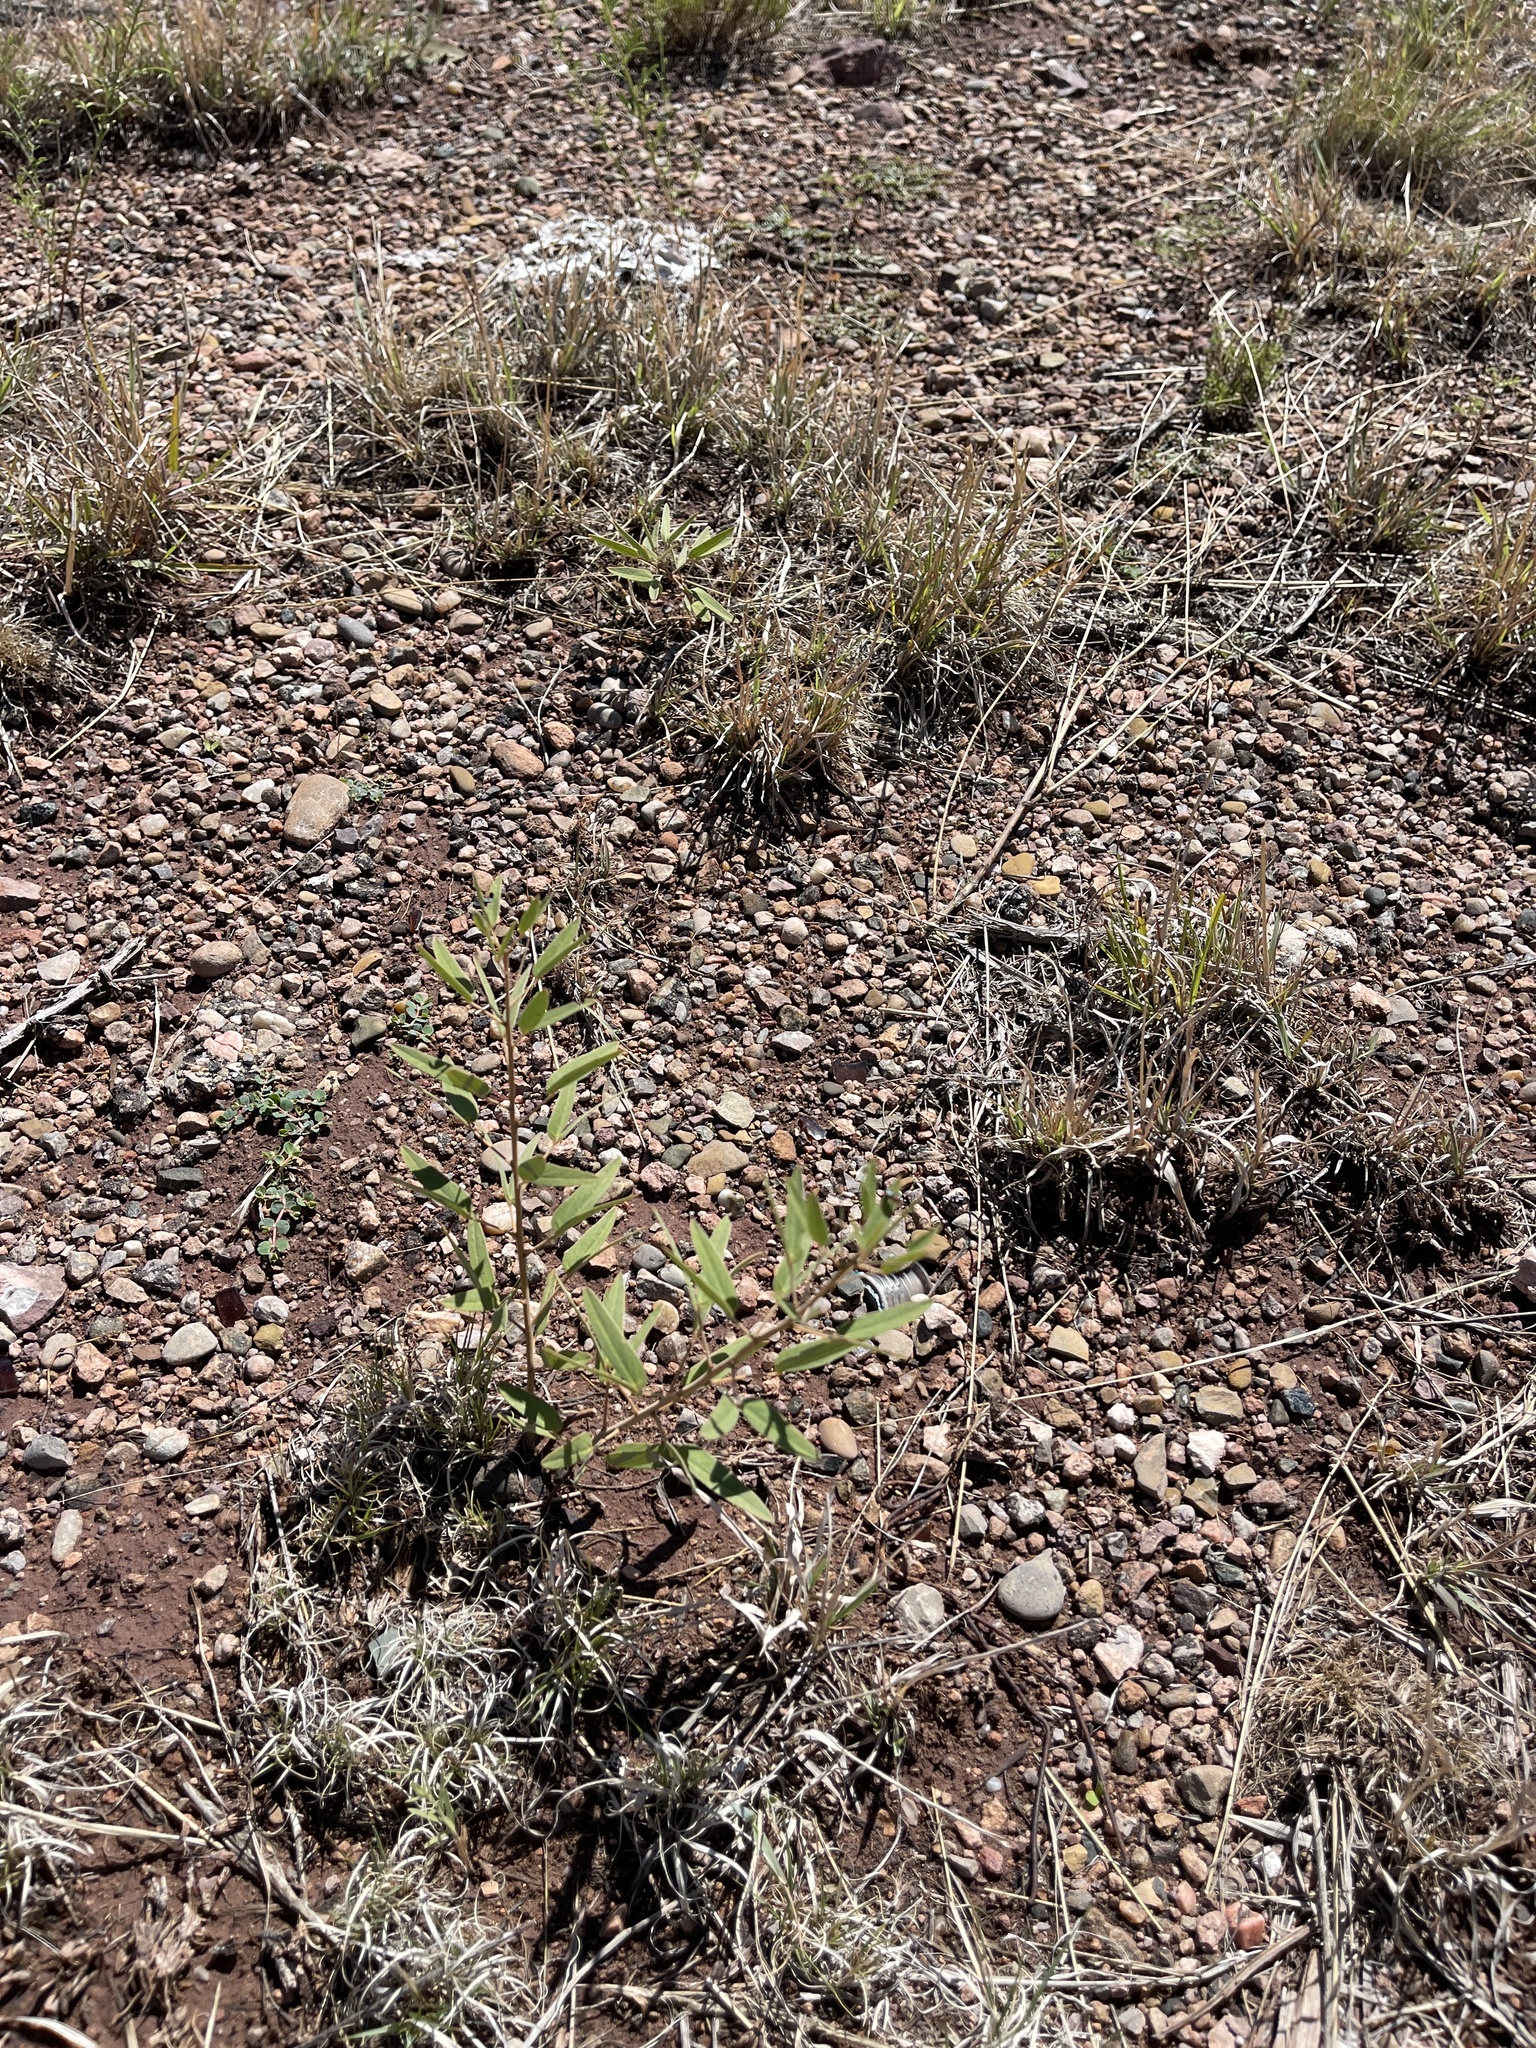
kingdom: Plantae
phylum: Tracheophyta
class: Magnoliopsida
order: Fabales
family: Fabaceae
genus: Senna
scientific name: Senna roemeriana
